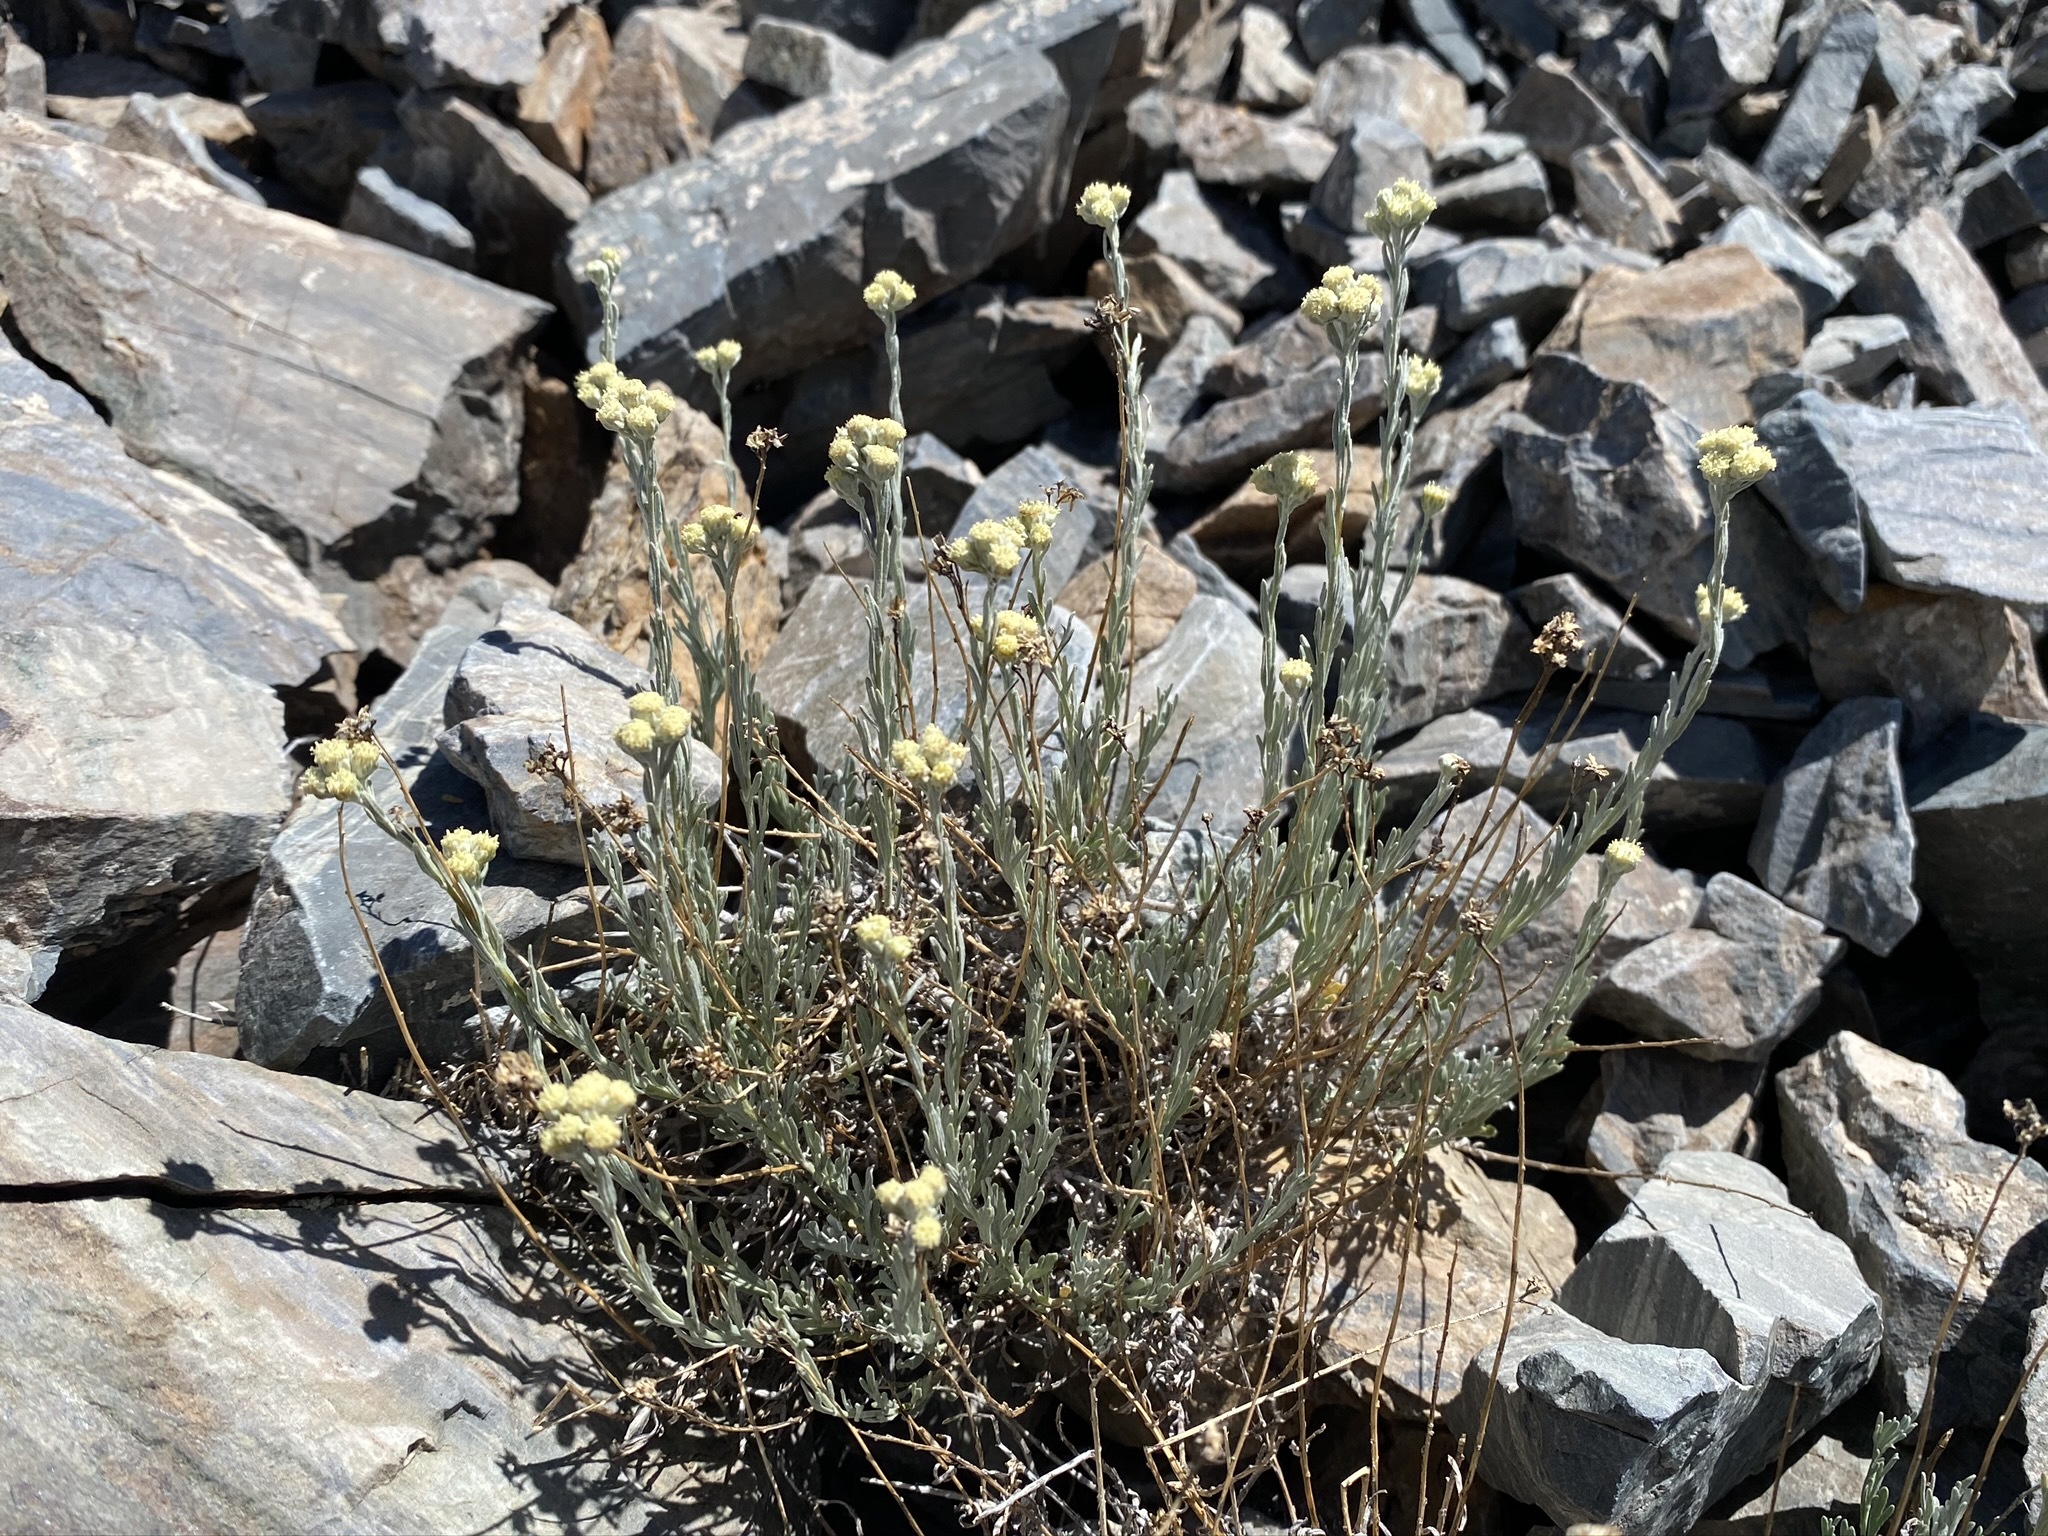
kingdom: Plantae
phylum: Tracheophyta
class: Magnoliopsida
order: Asterales
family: Asteraceae
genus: Artemisia
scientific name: Artemisia albicans
